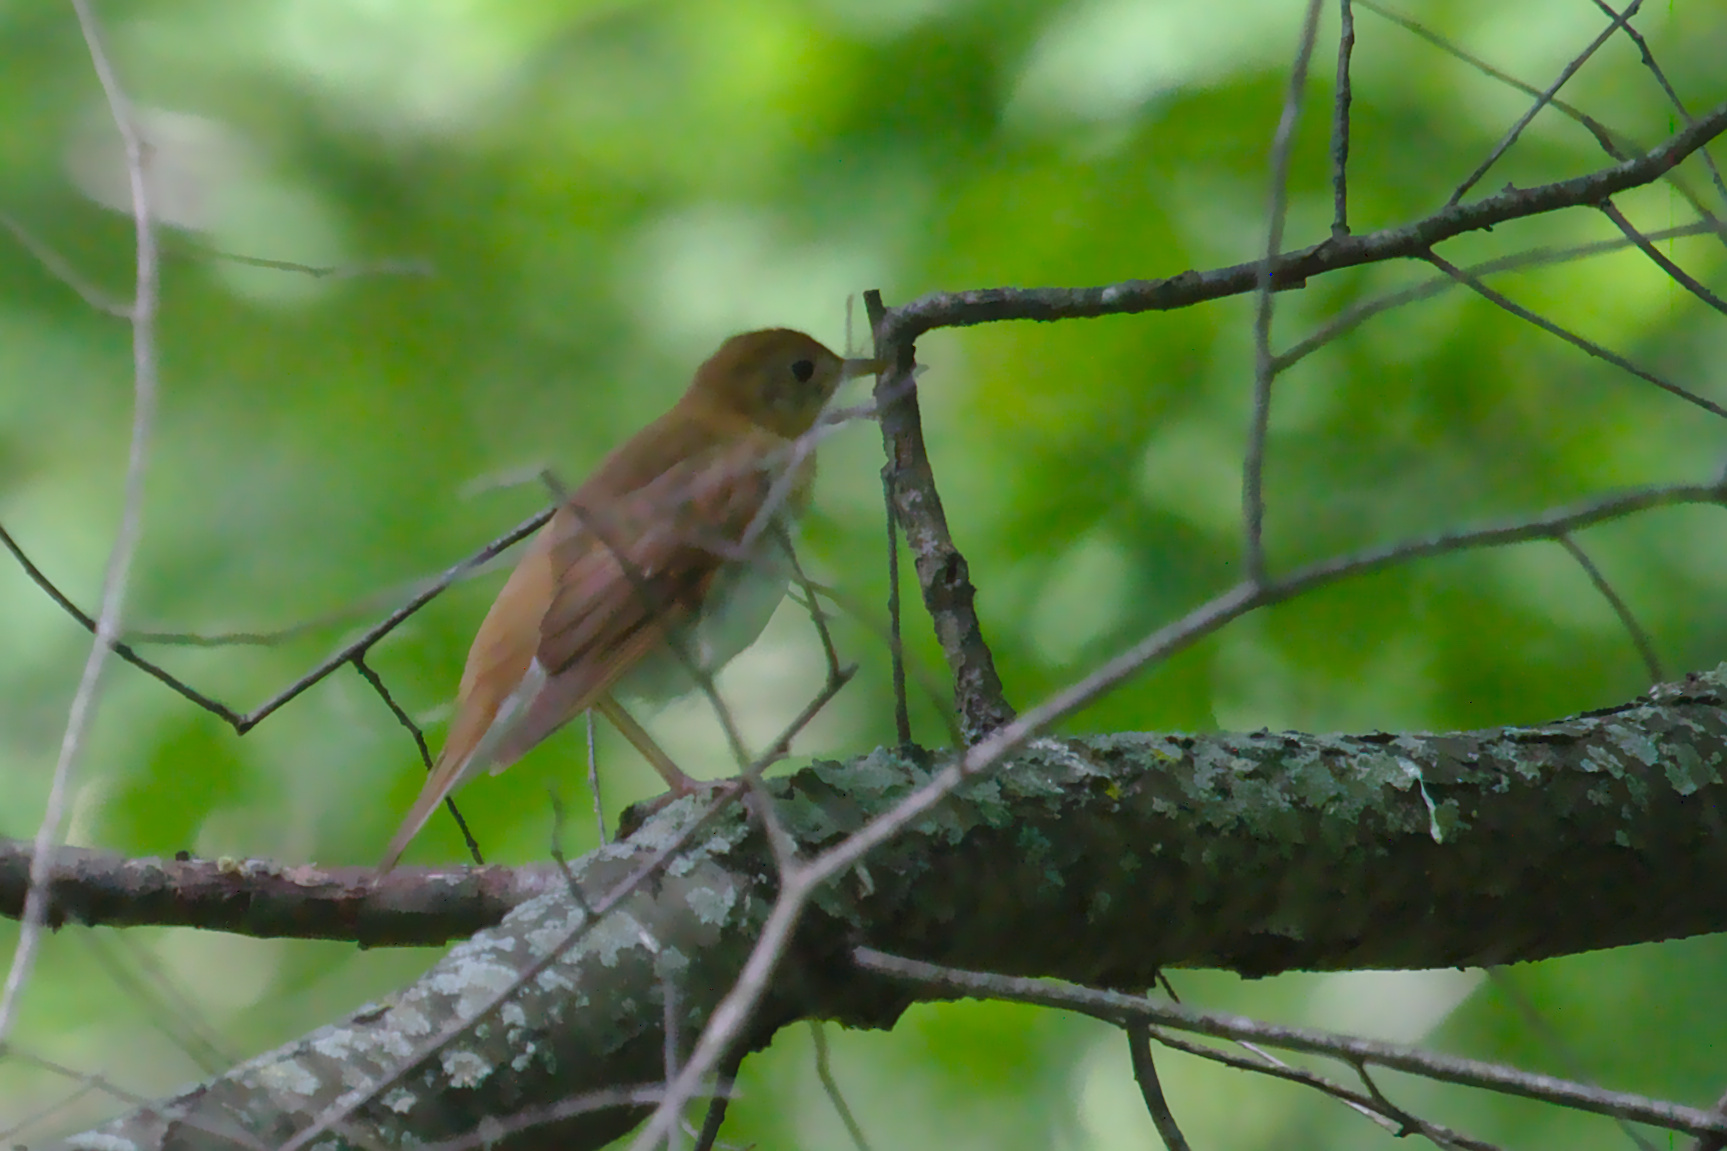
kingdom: Animalia
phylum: Chordata
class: Aves
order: Passeriformes
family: Turdidae
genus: Catharus
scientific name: Catharus fuscescens
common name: Veery
